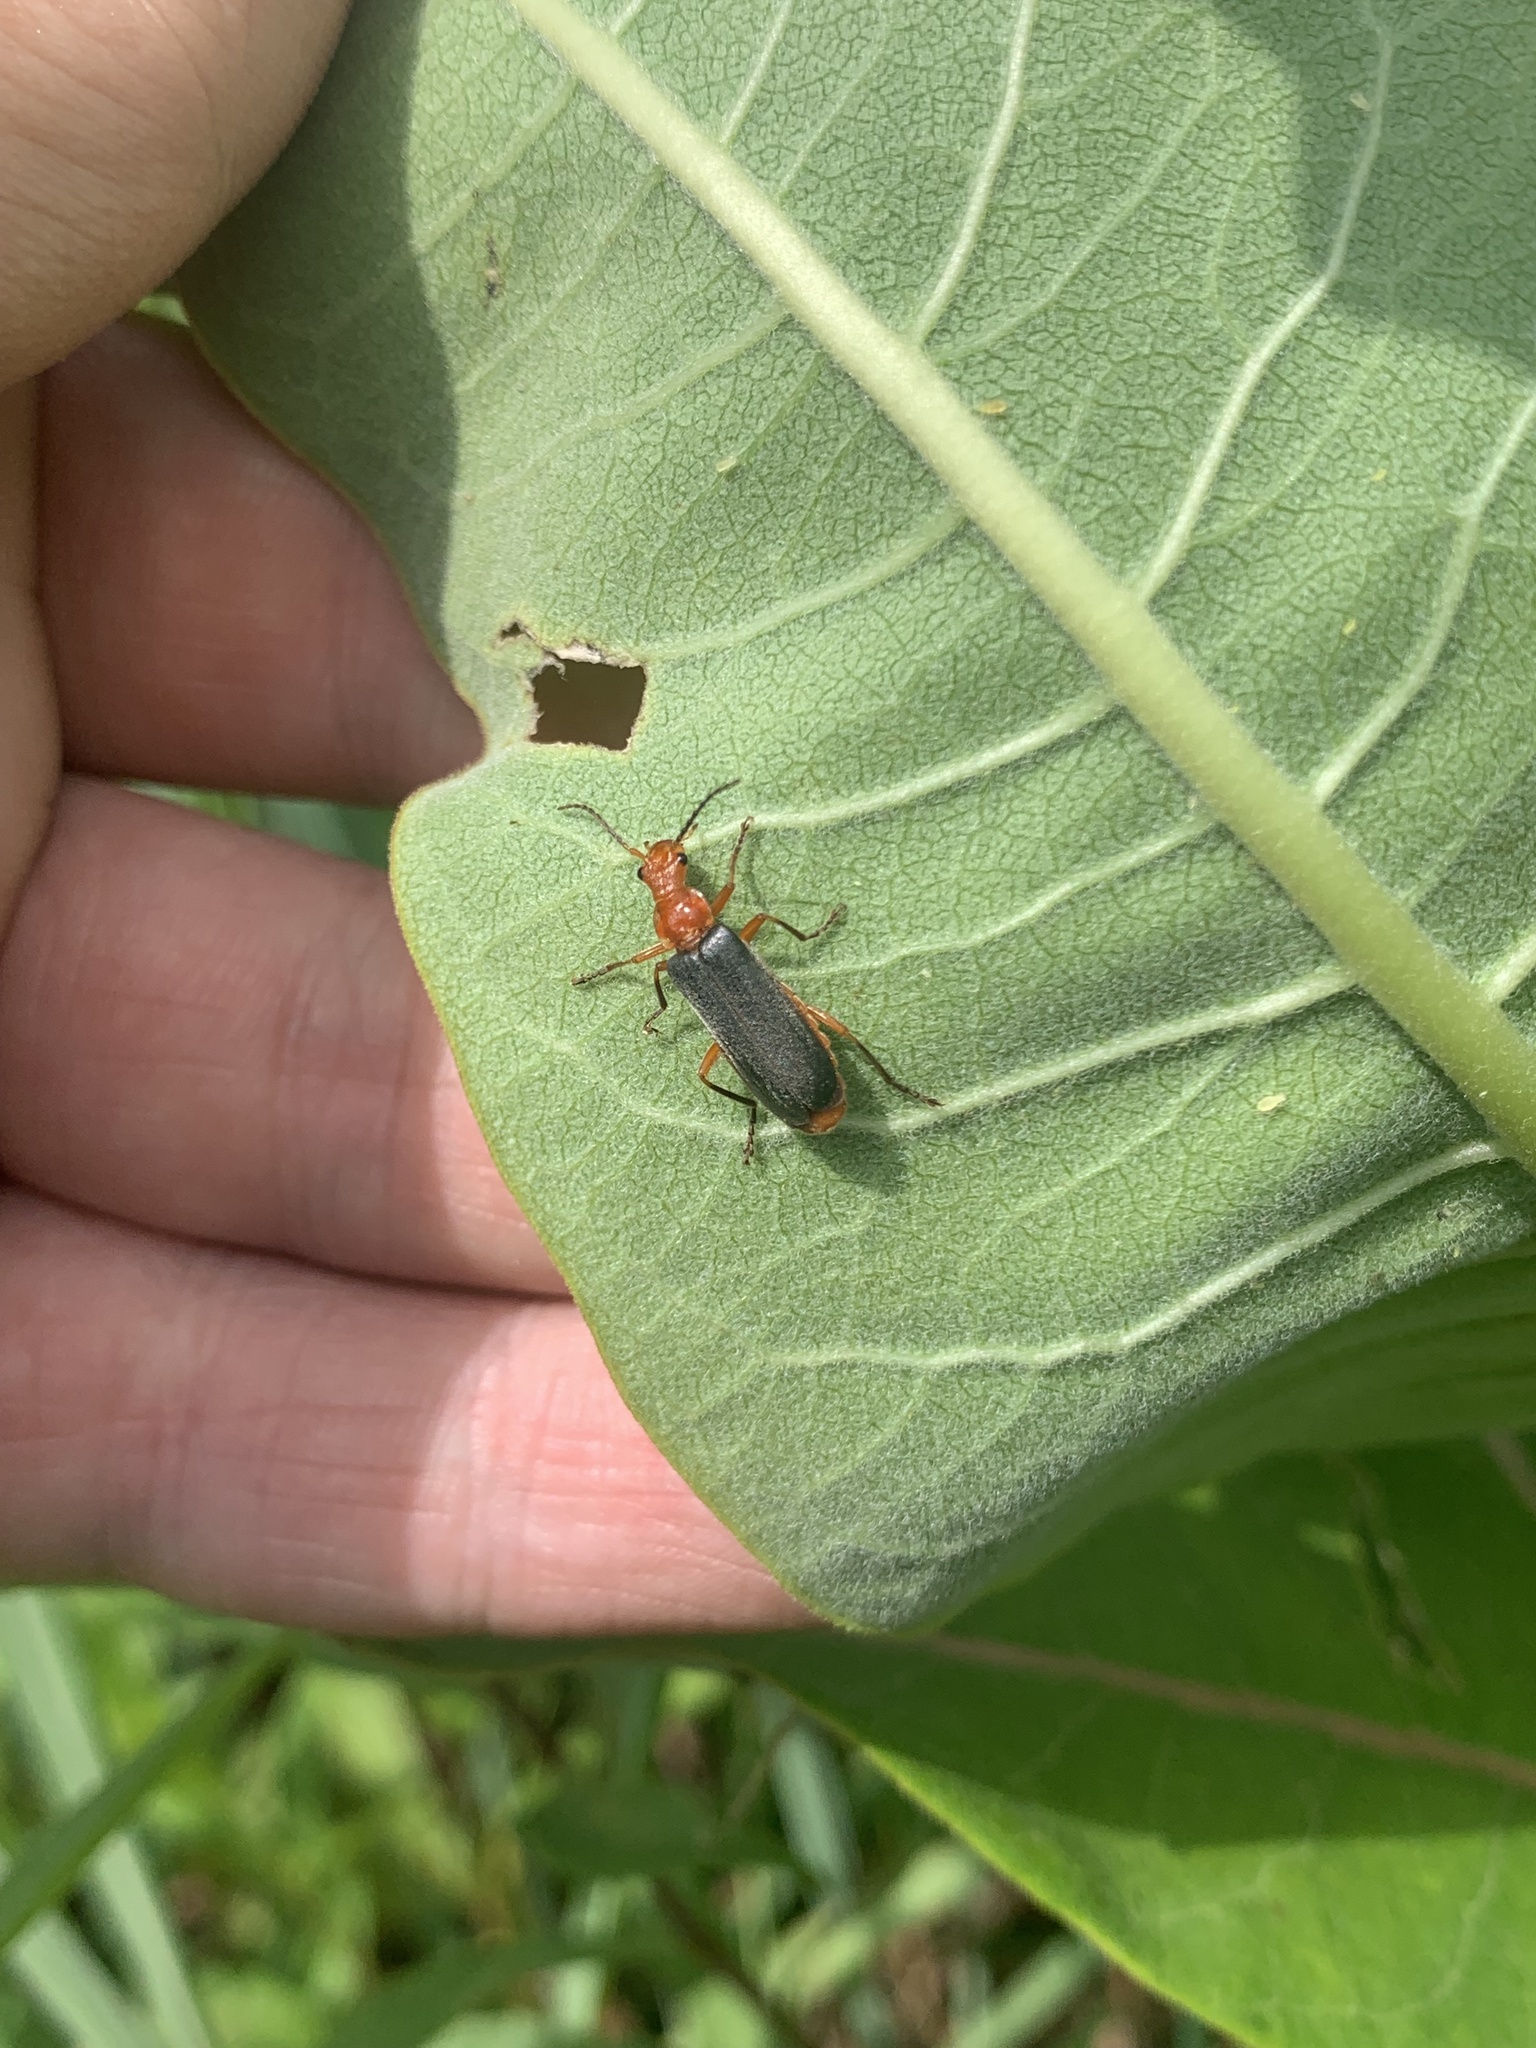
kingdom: Animalia
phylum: Arthropoda
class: Insecta
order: Coleoptera
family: Cantharidae
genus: Podabrus
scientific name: Podabrus tomentosus
